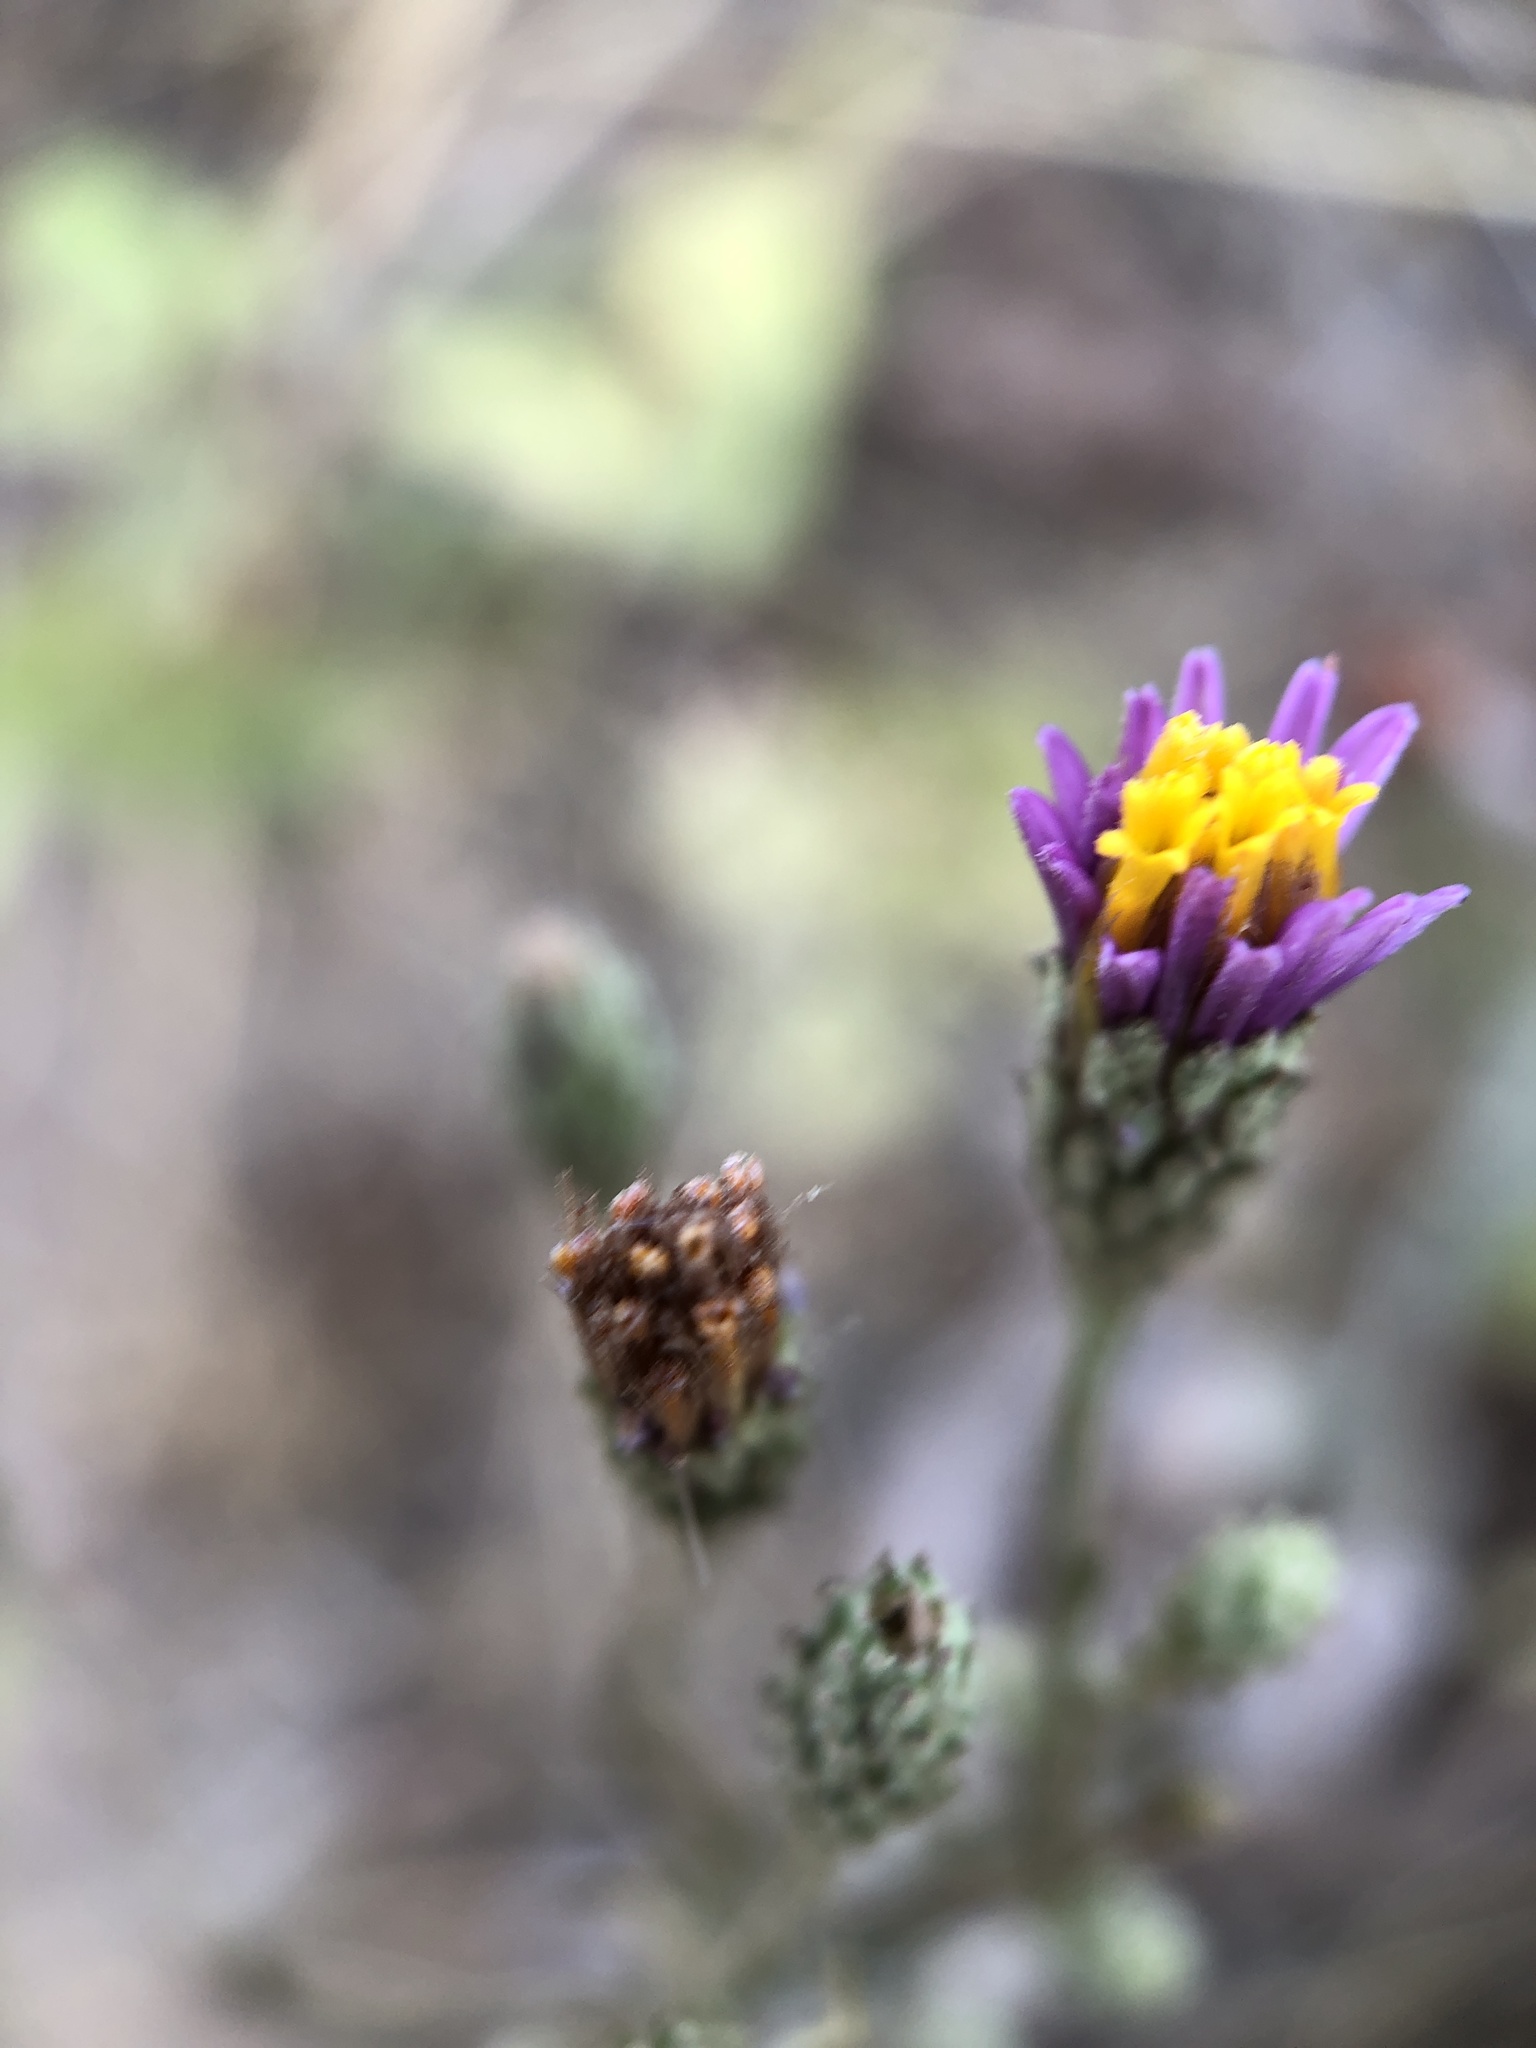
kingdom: Plantae
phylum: Tracheophyta
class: Magnoliopsida
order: Asterales
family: Asteraceae
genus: Corethrogyne
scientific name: Corethrogyne filaginifolia
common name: Sand-aster
